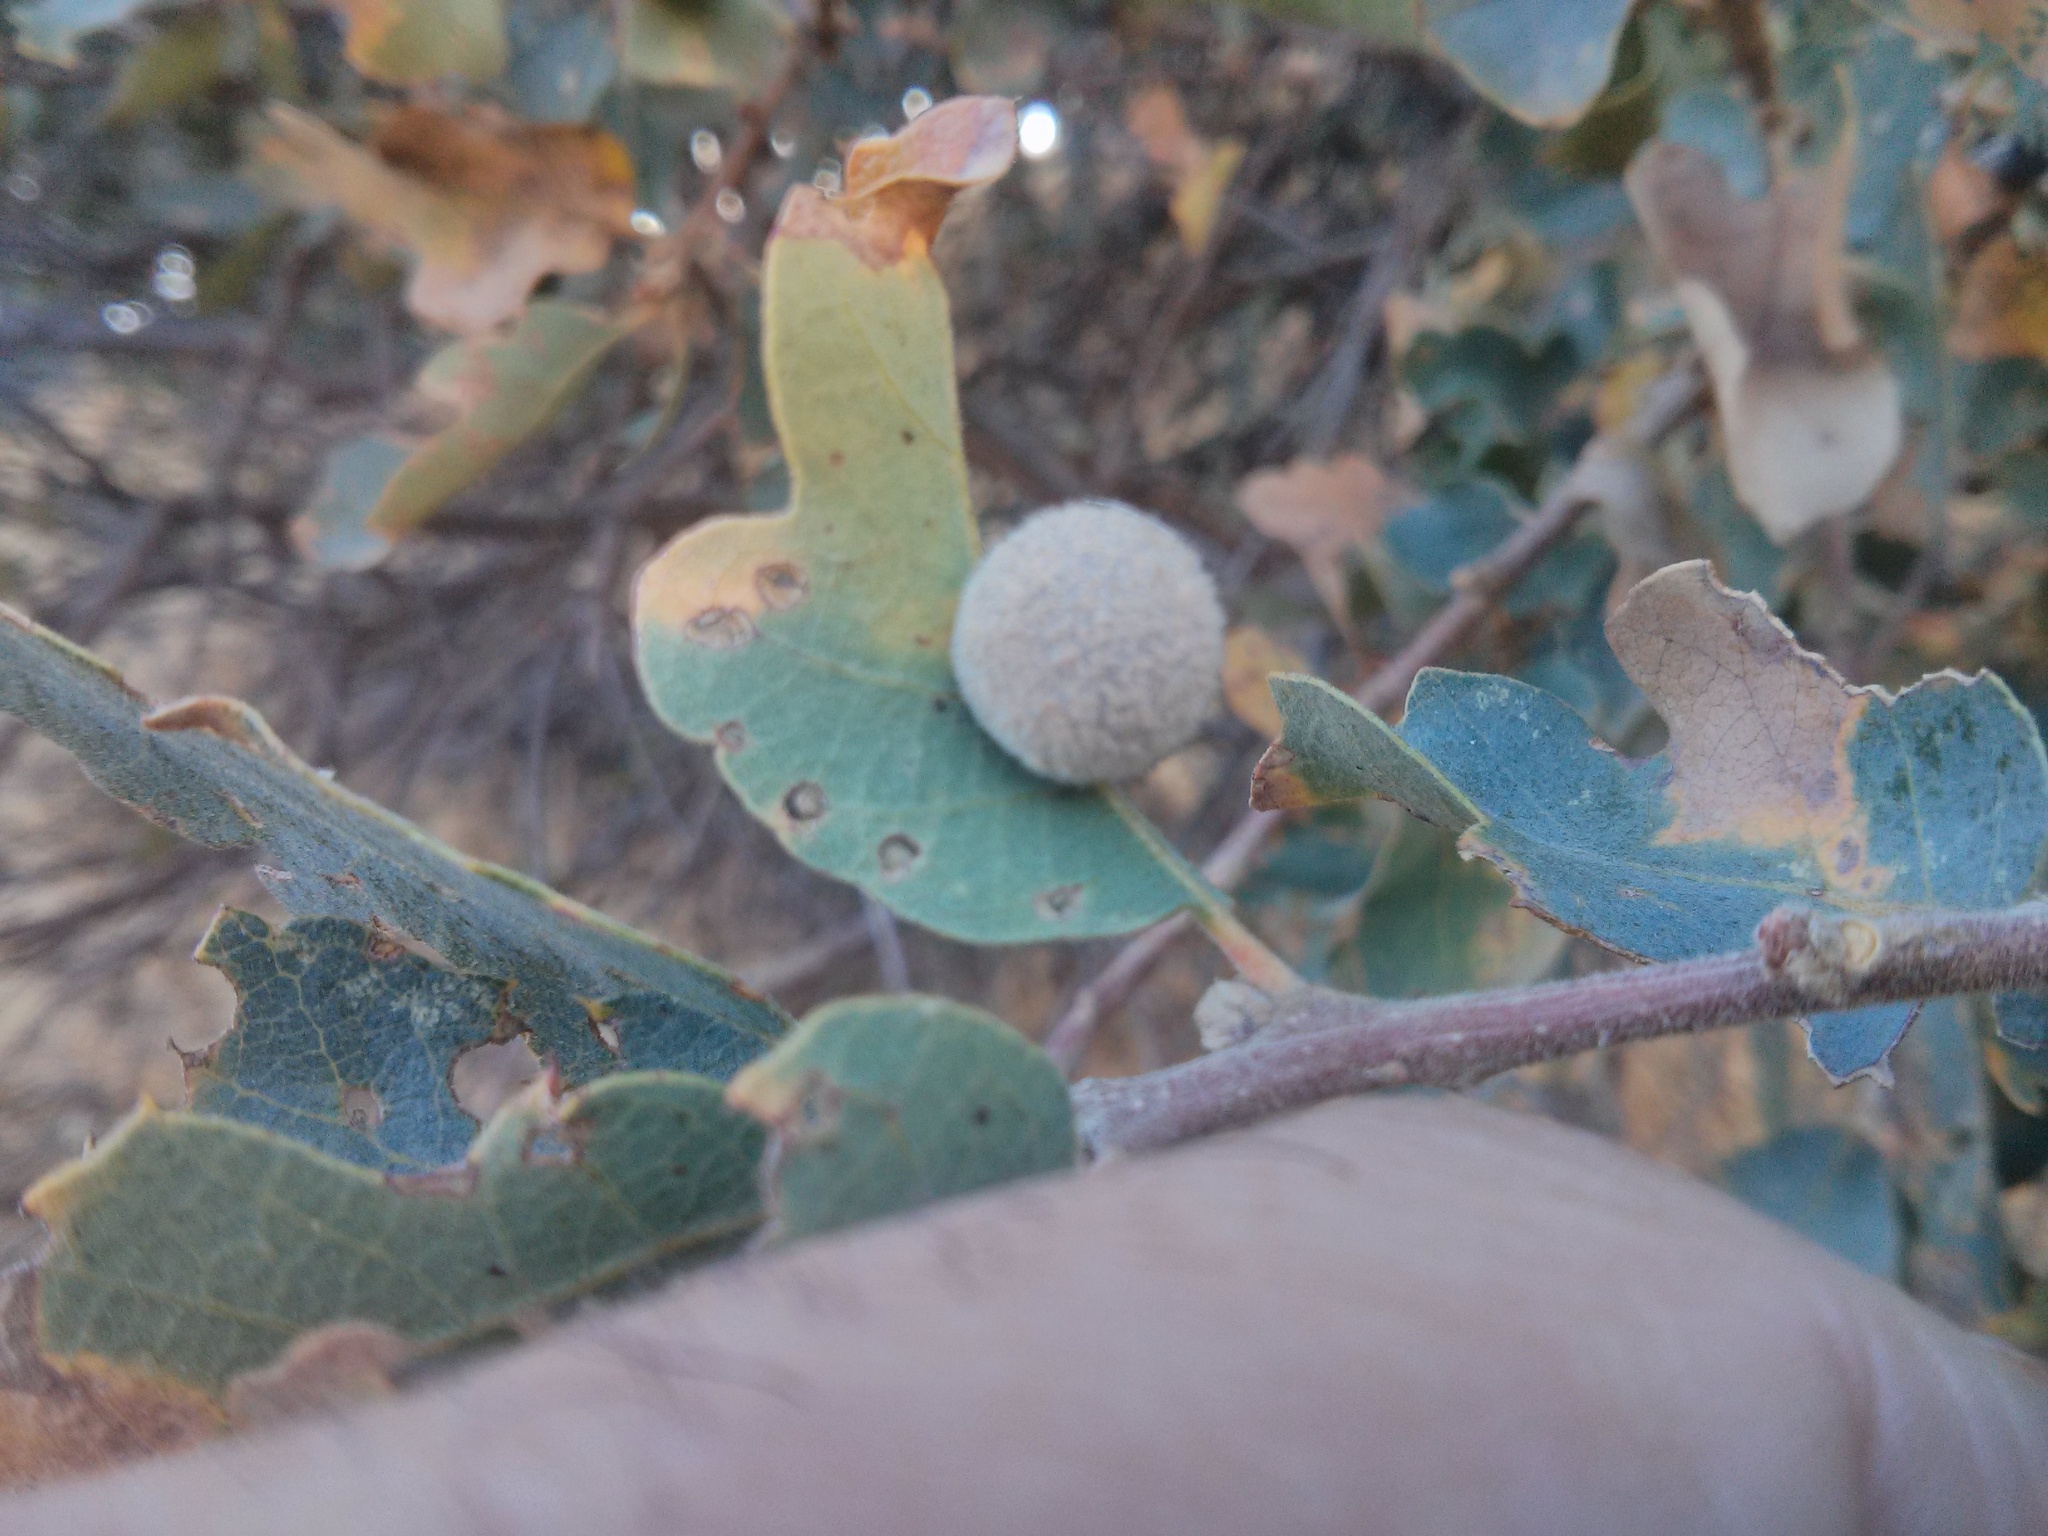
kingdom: Animalia
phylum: Arthropoda
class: Insecta
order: Hymenoptera
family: Cynipidae
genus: Cynips
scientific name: Cynips
